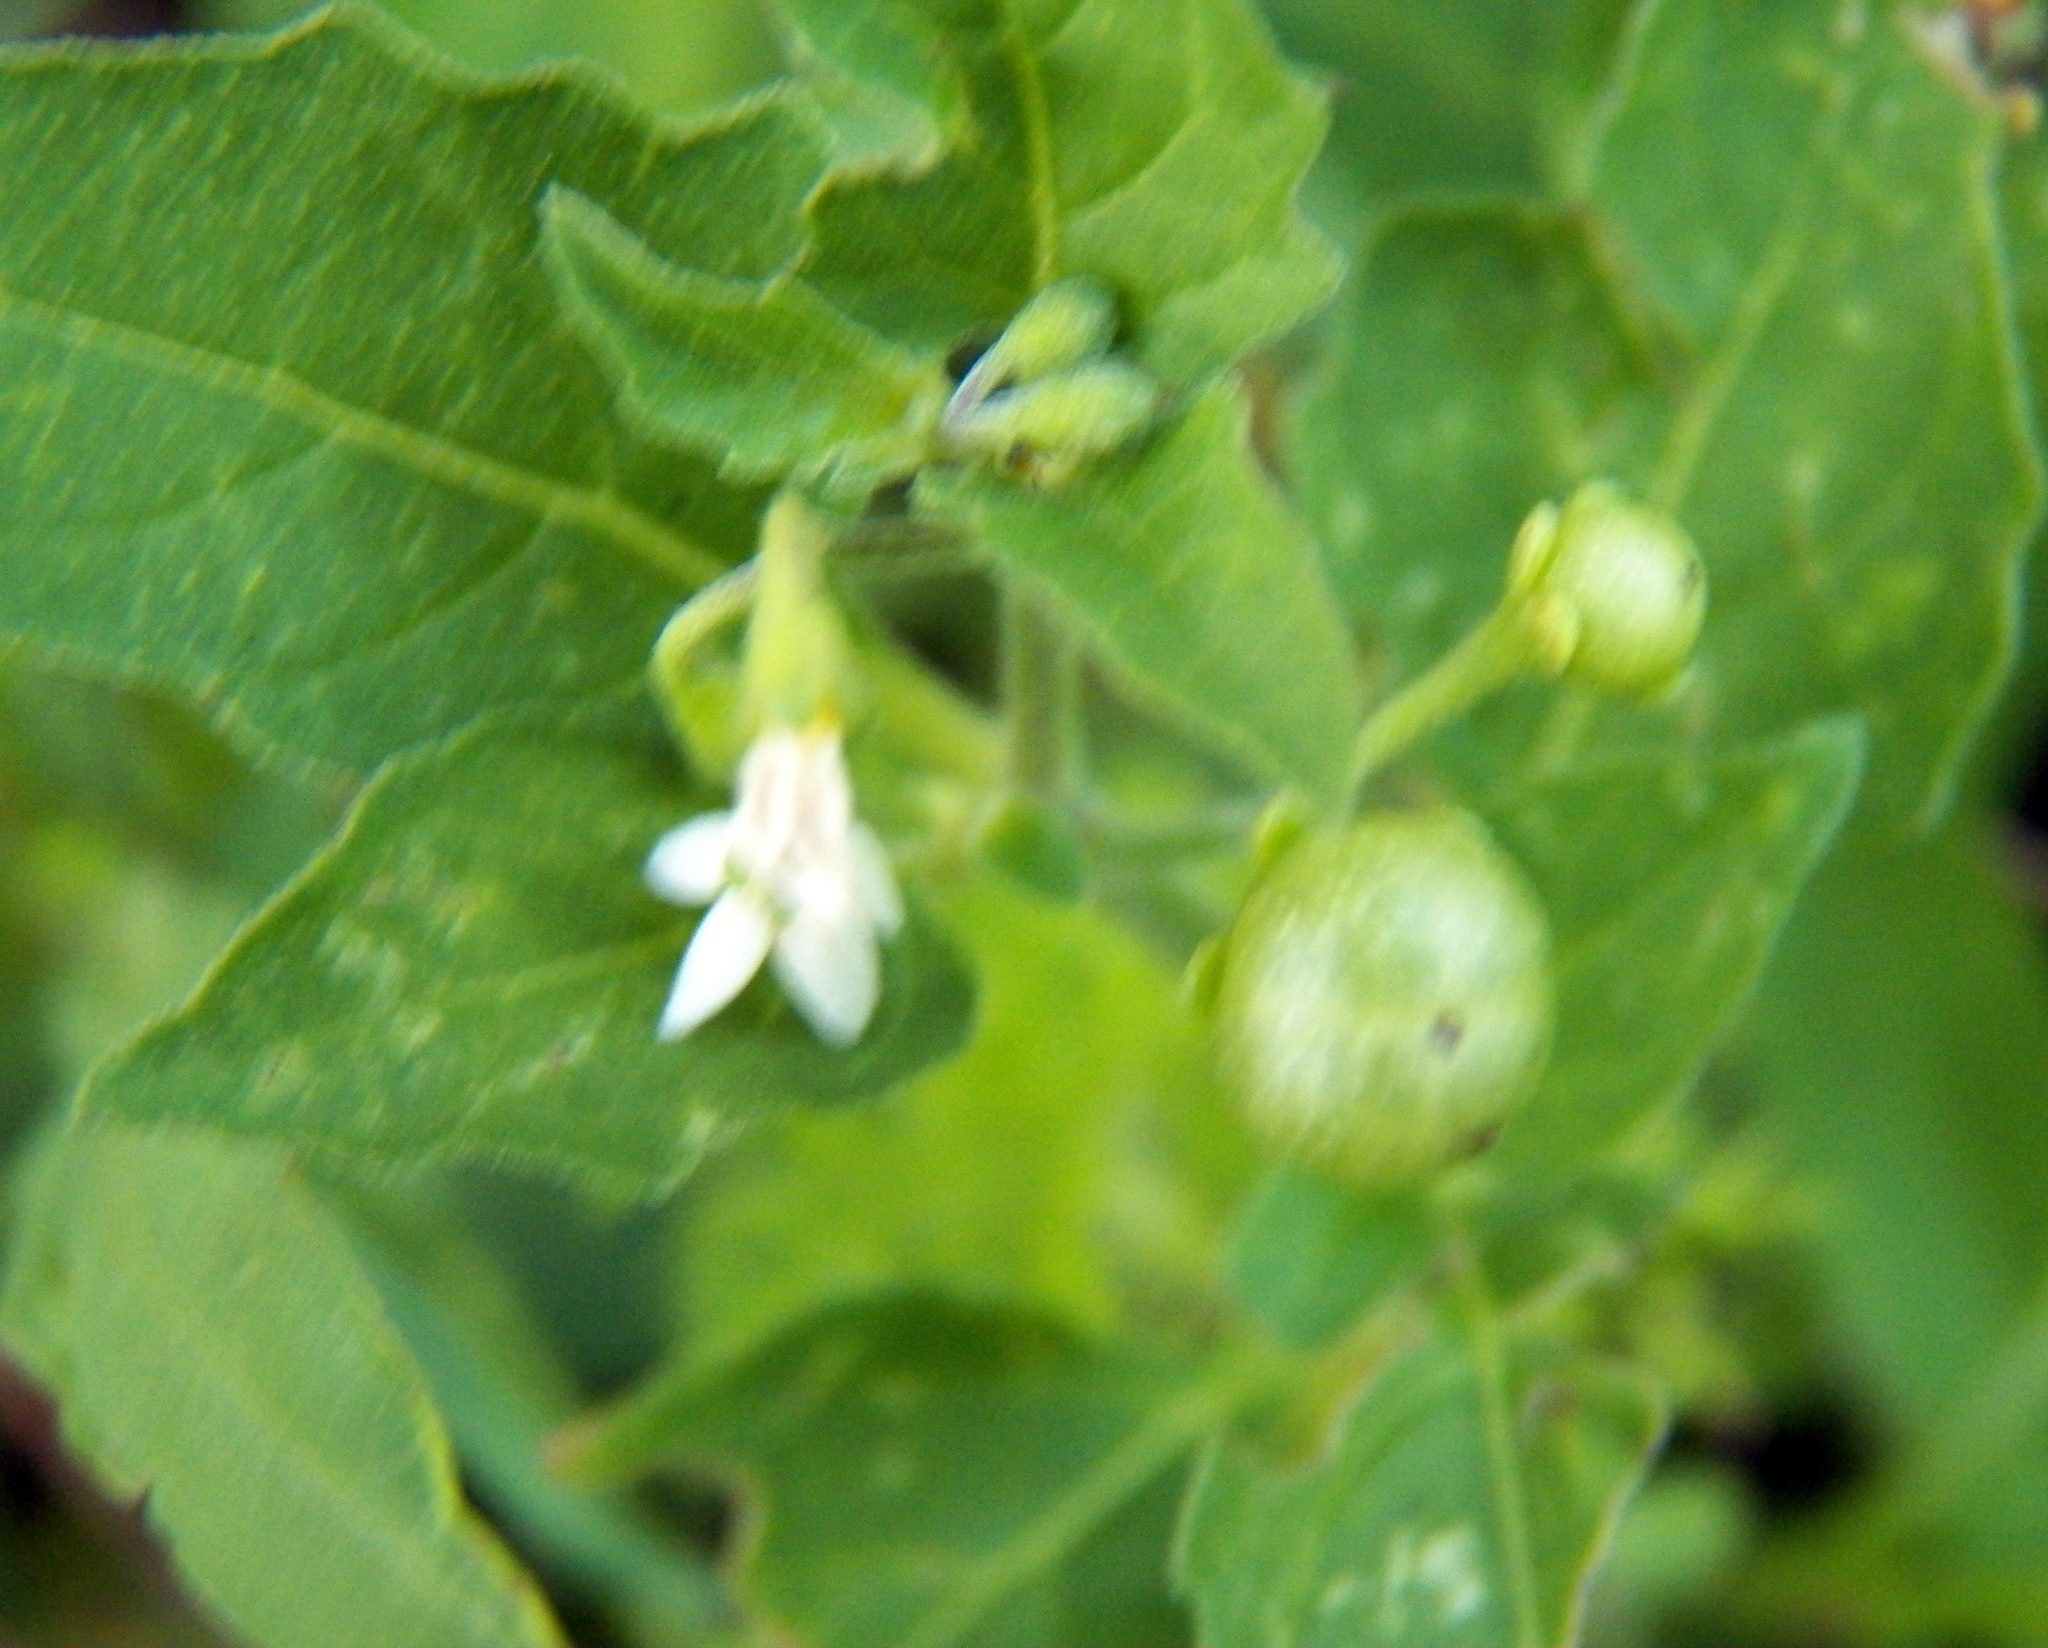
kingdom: Plantae
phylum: Tracheophyta
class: Magnoliopsida
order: Solanales
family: Solanaceae
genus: Solanum
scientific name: Solanum americanum
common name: American black nightshade
